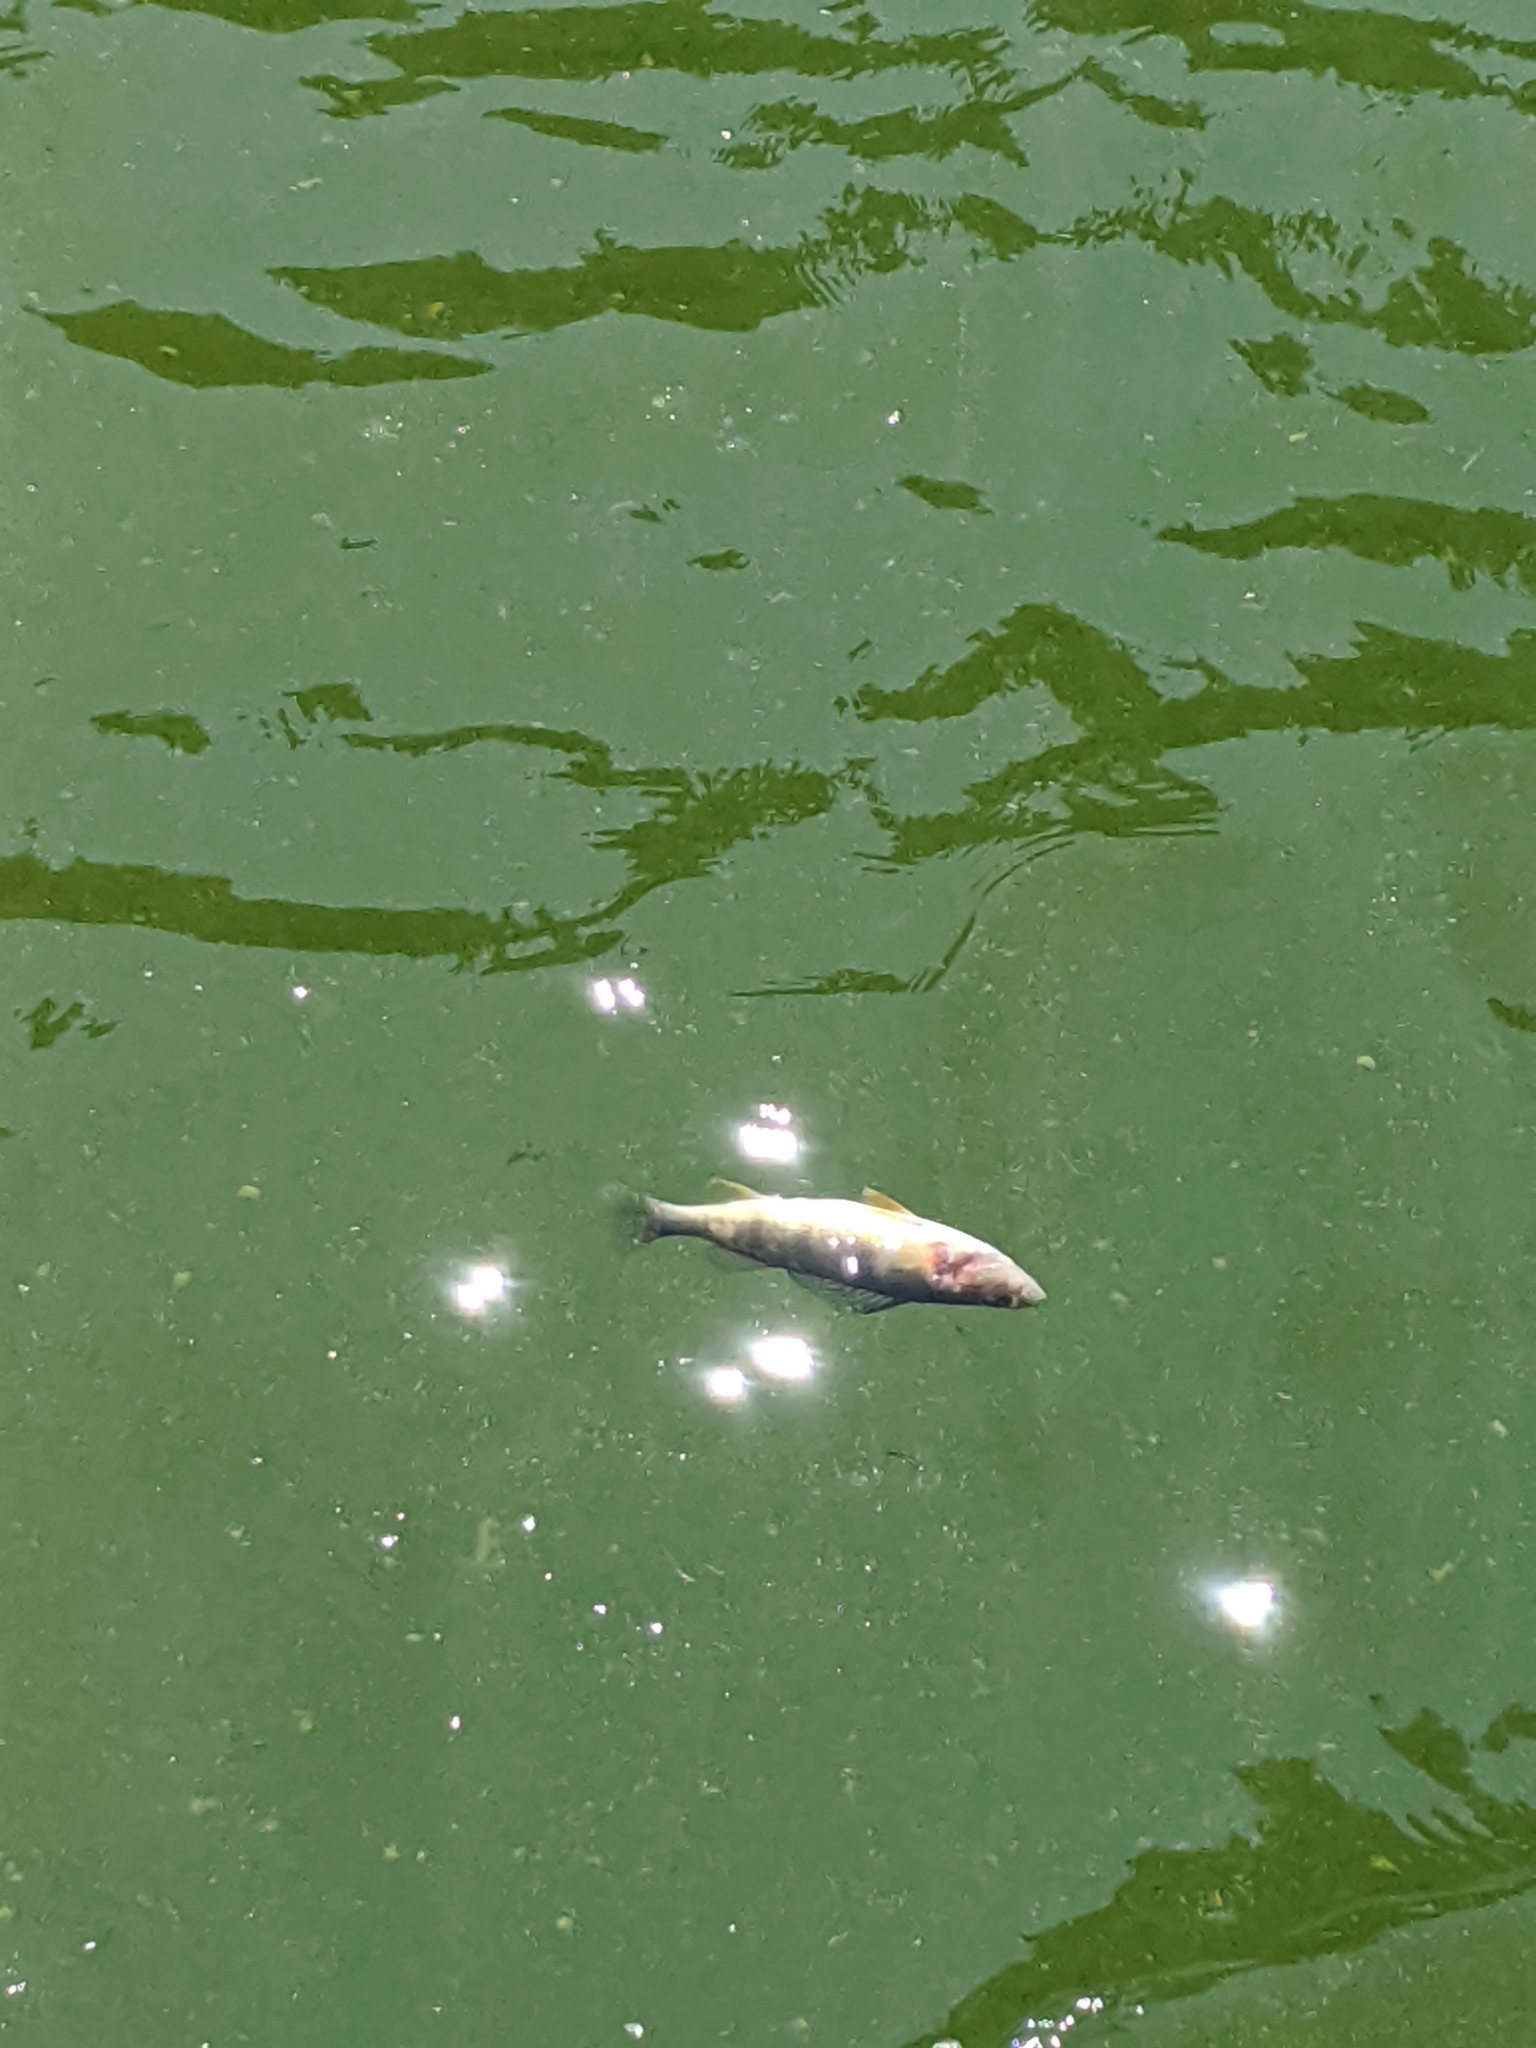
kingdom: Animalia
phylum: Chordata
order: Perciformes
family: Percidae
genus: Perca
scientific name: Perca flavescens
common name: Yellow perch
